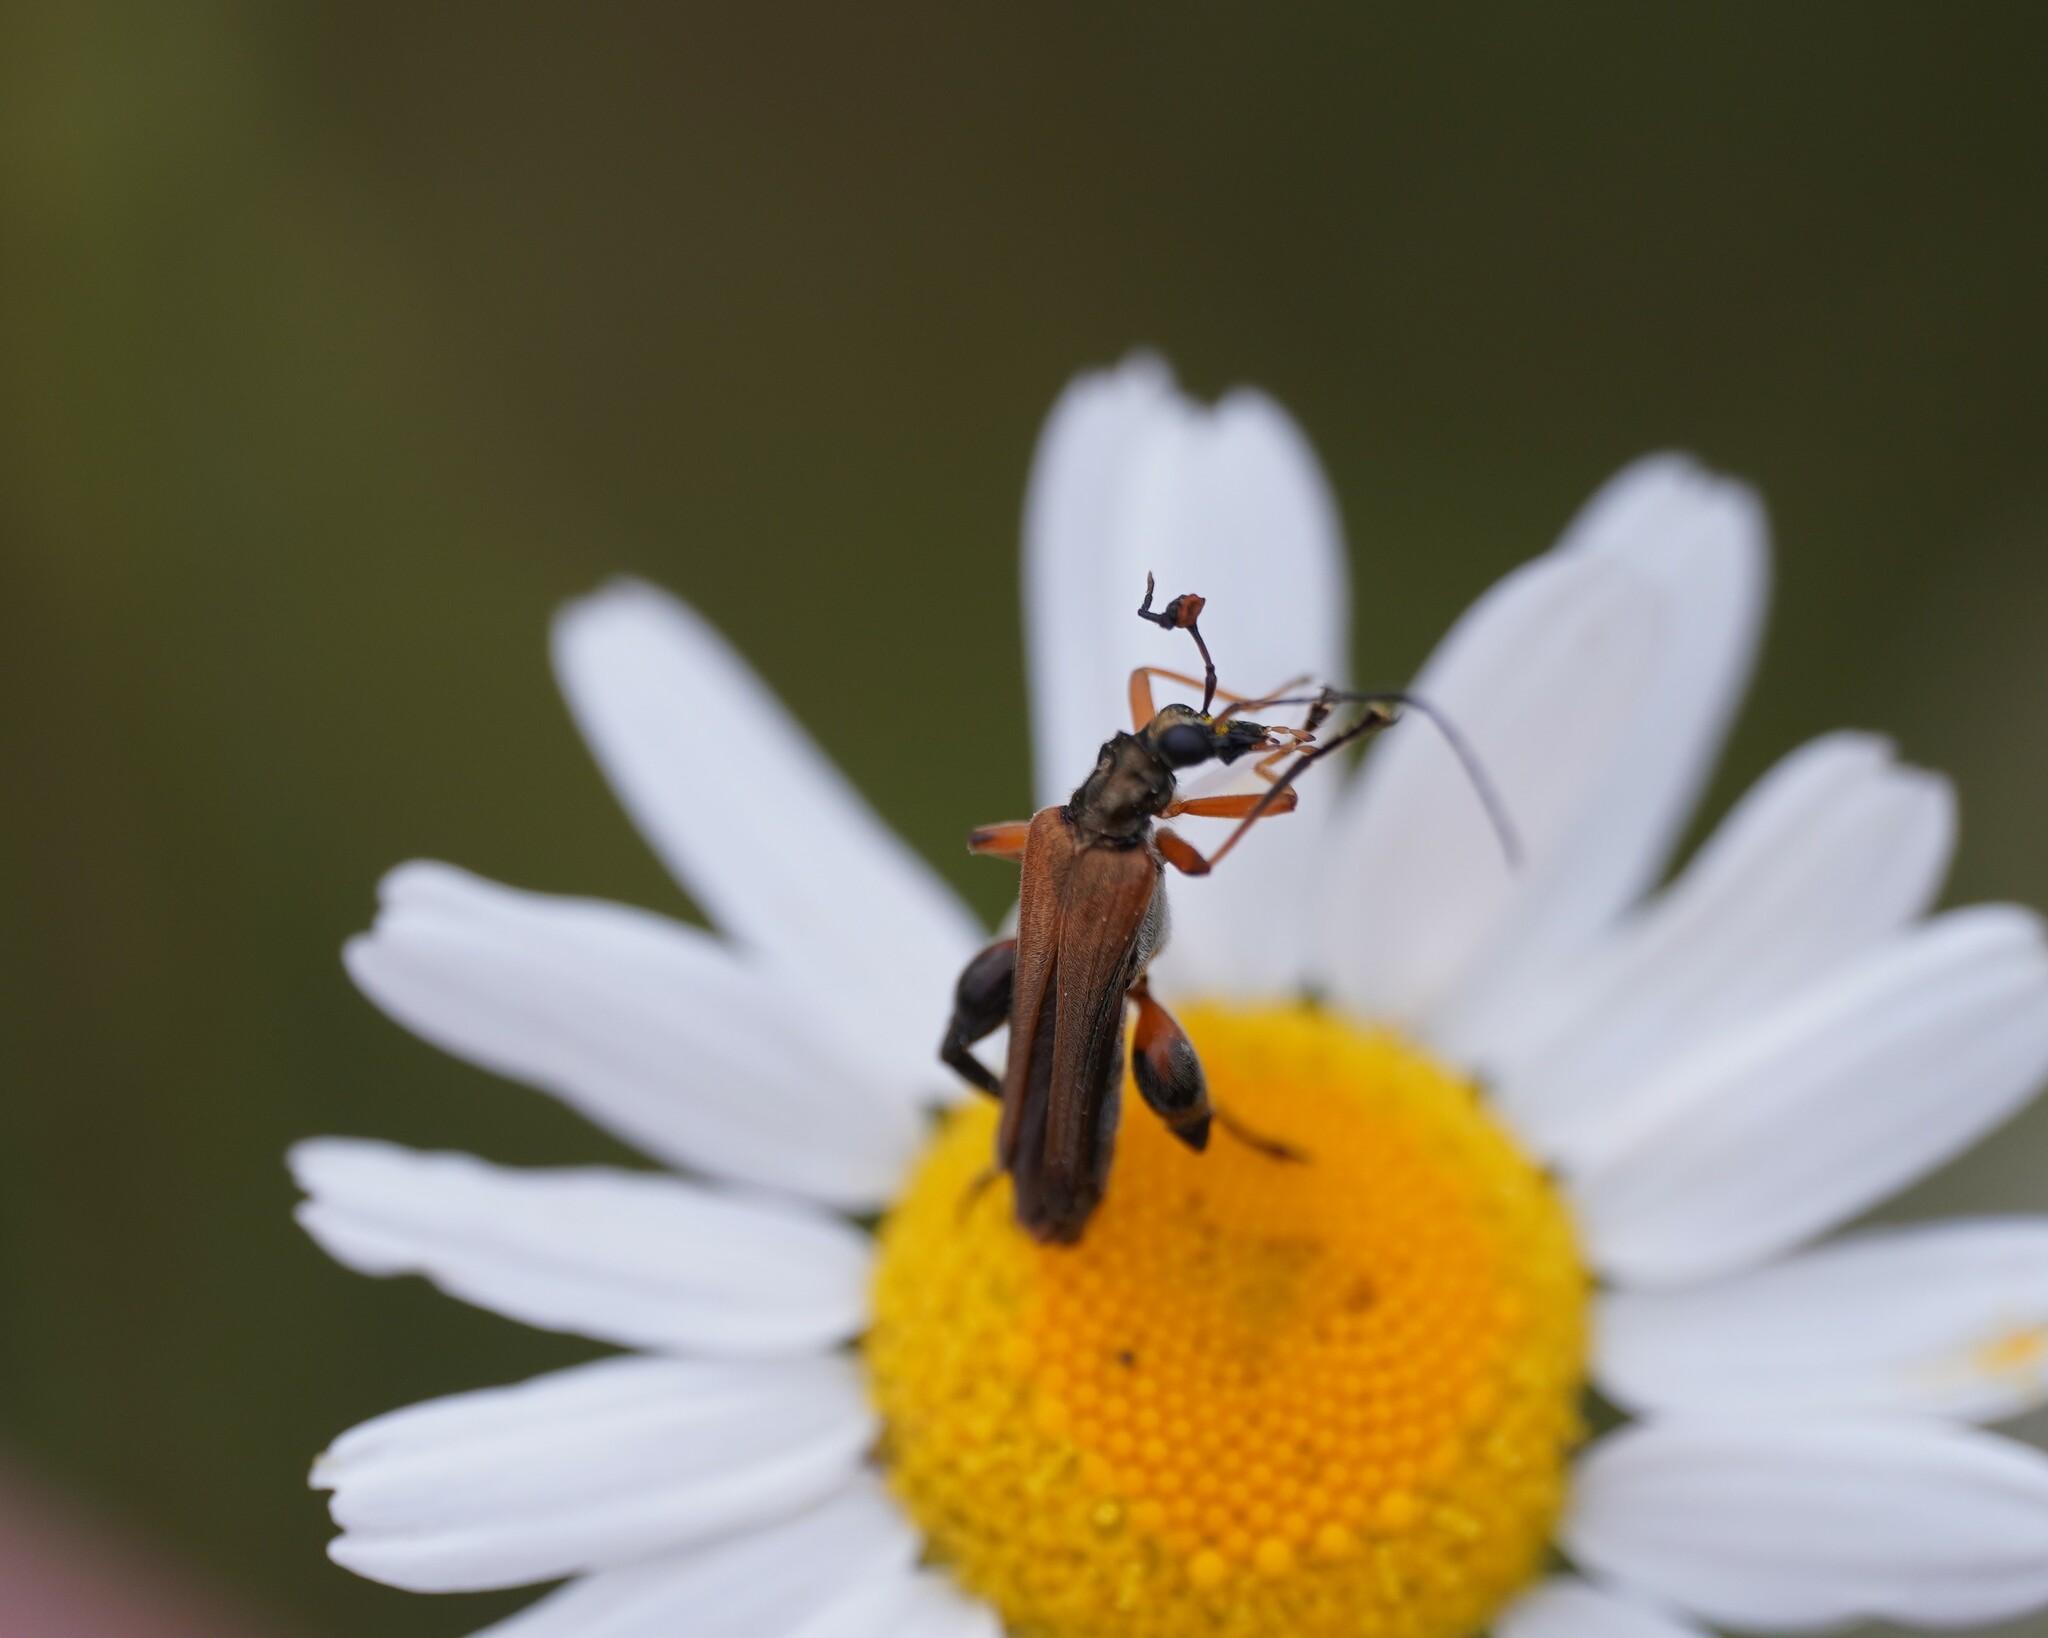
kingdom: Animalia
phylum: Arthropoda
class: Insecta
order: Coleoptera
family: Oedemeridae
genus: Oedemera
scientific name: Oedemera podagrariae
